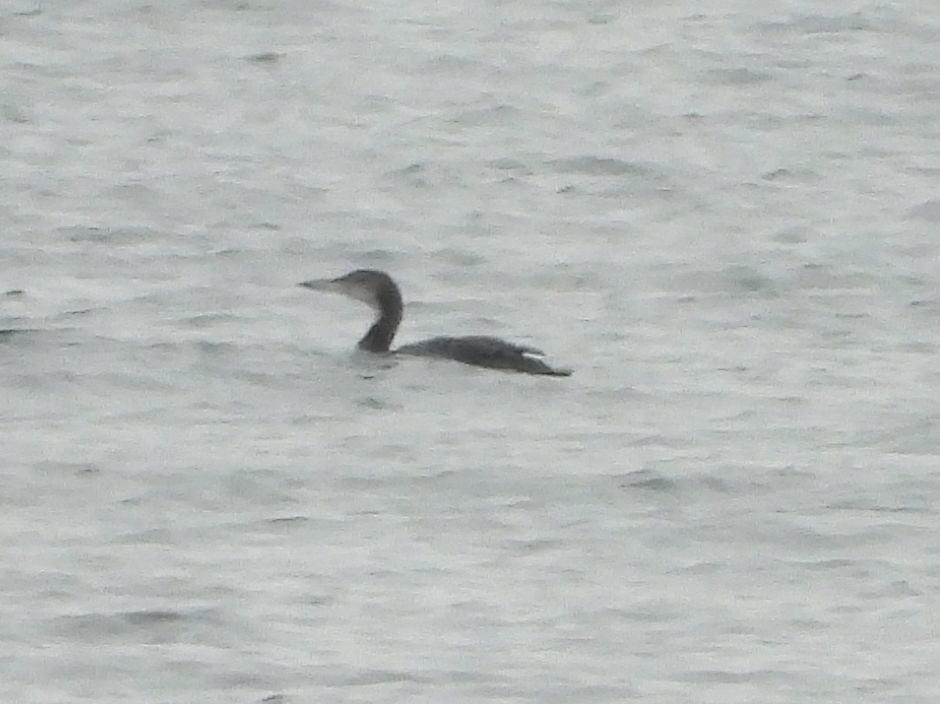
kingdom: Animalia
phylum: Chordata
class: Aves
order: Gaviiformes
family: Gaviidae
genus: Gavia
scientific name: Gavia immer
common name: Common loon
